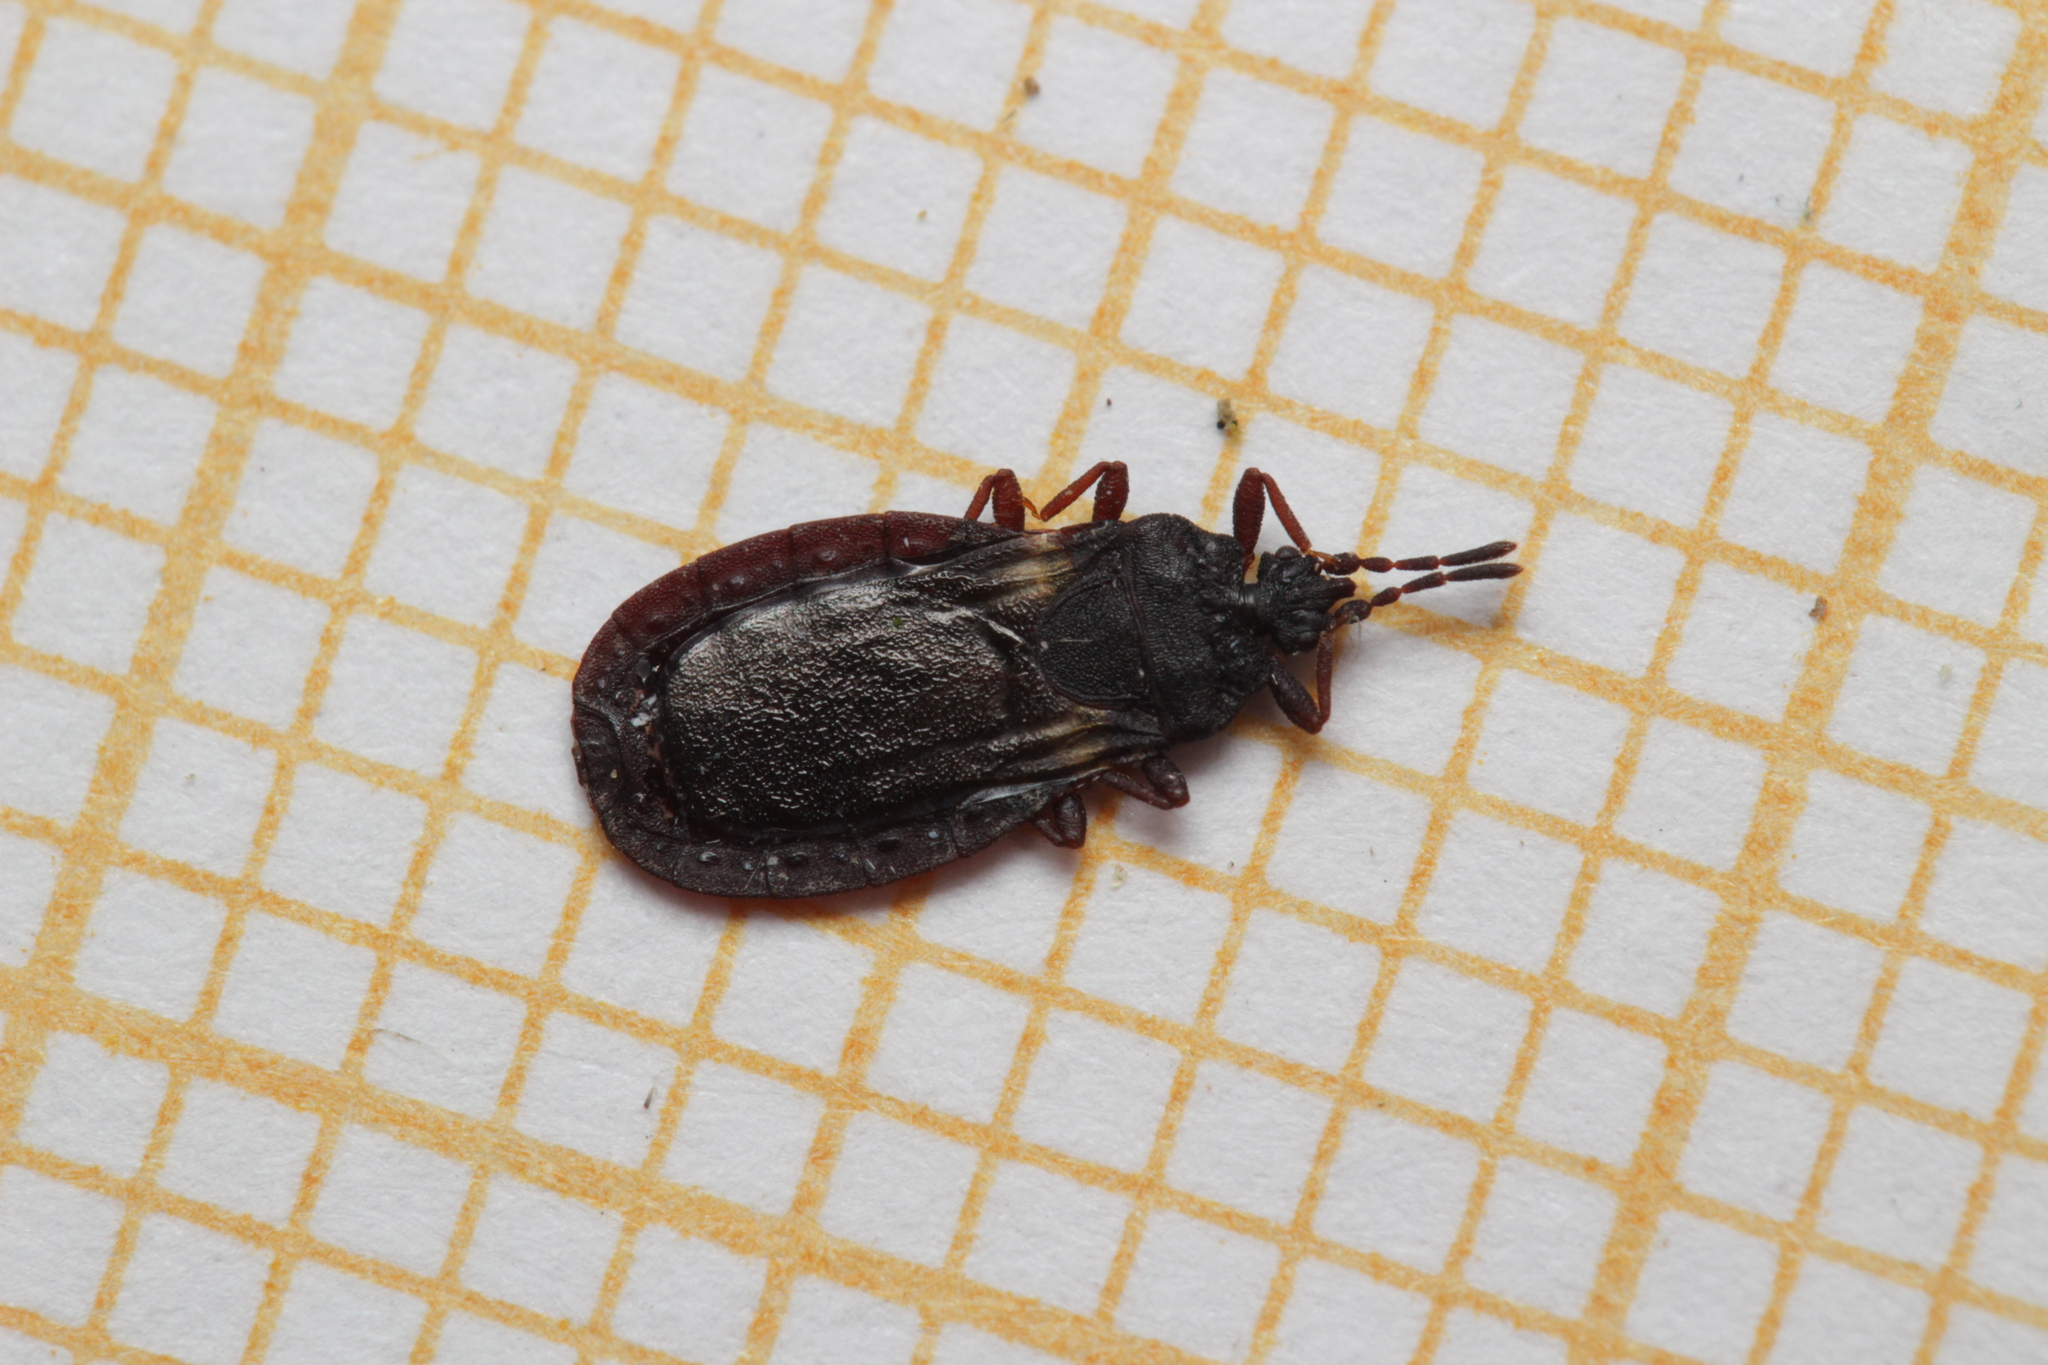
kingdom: Animalia
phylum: Arthropoda
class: Insecta
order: Hemiptera
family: Aradidae
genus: Aneurus
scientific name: Aneurus avenius
